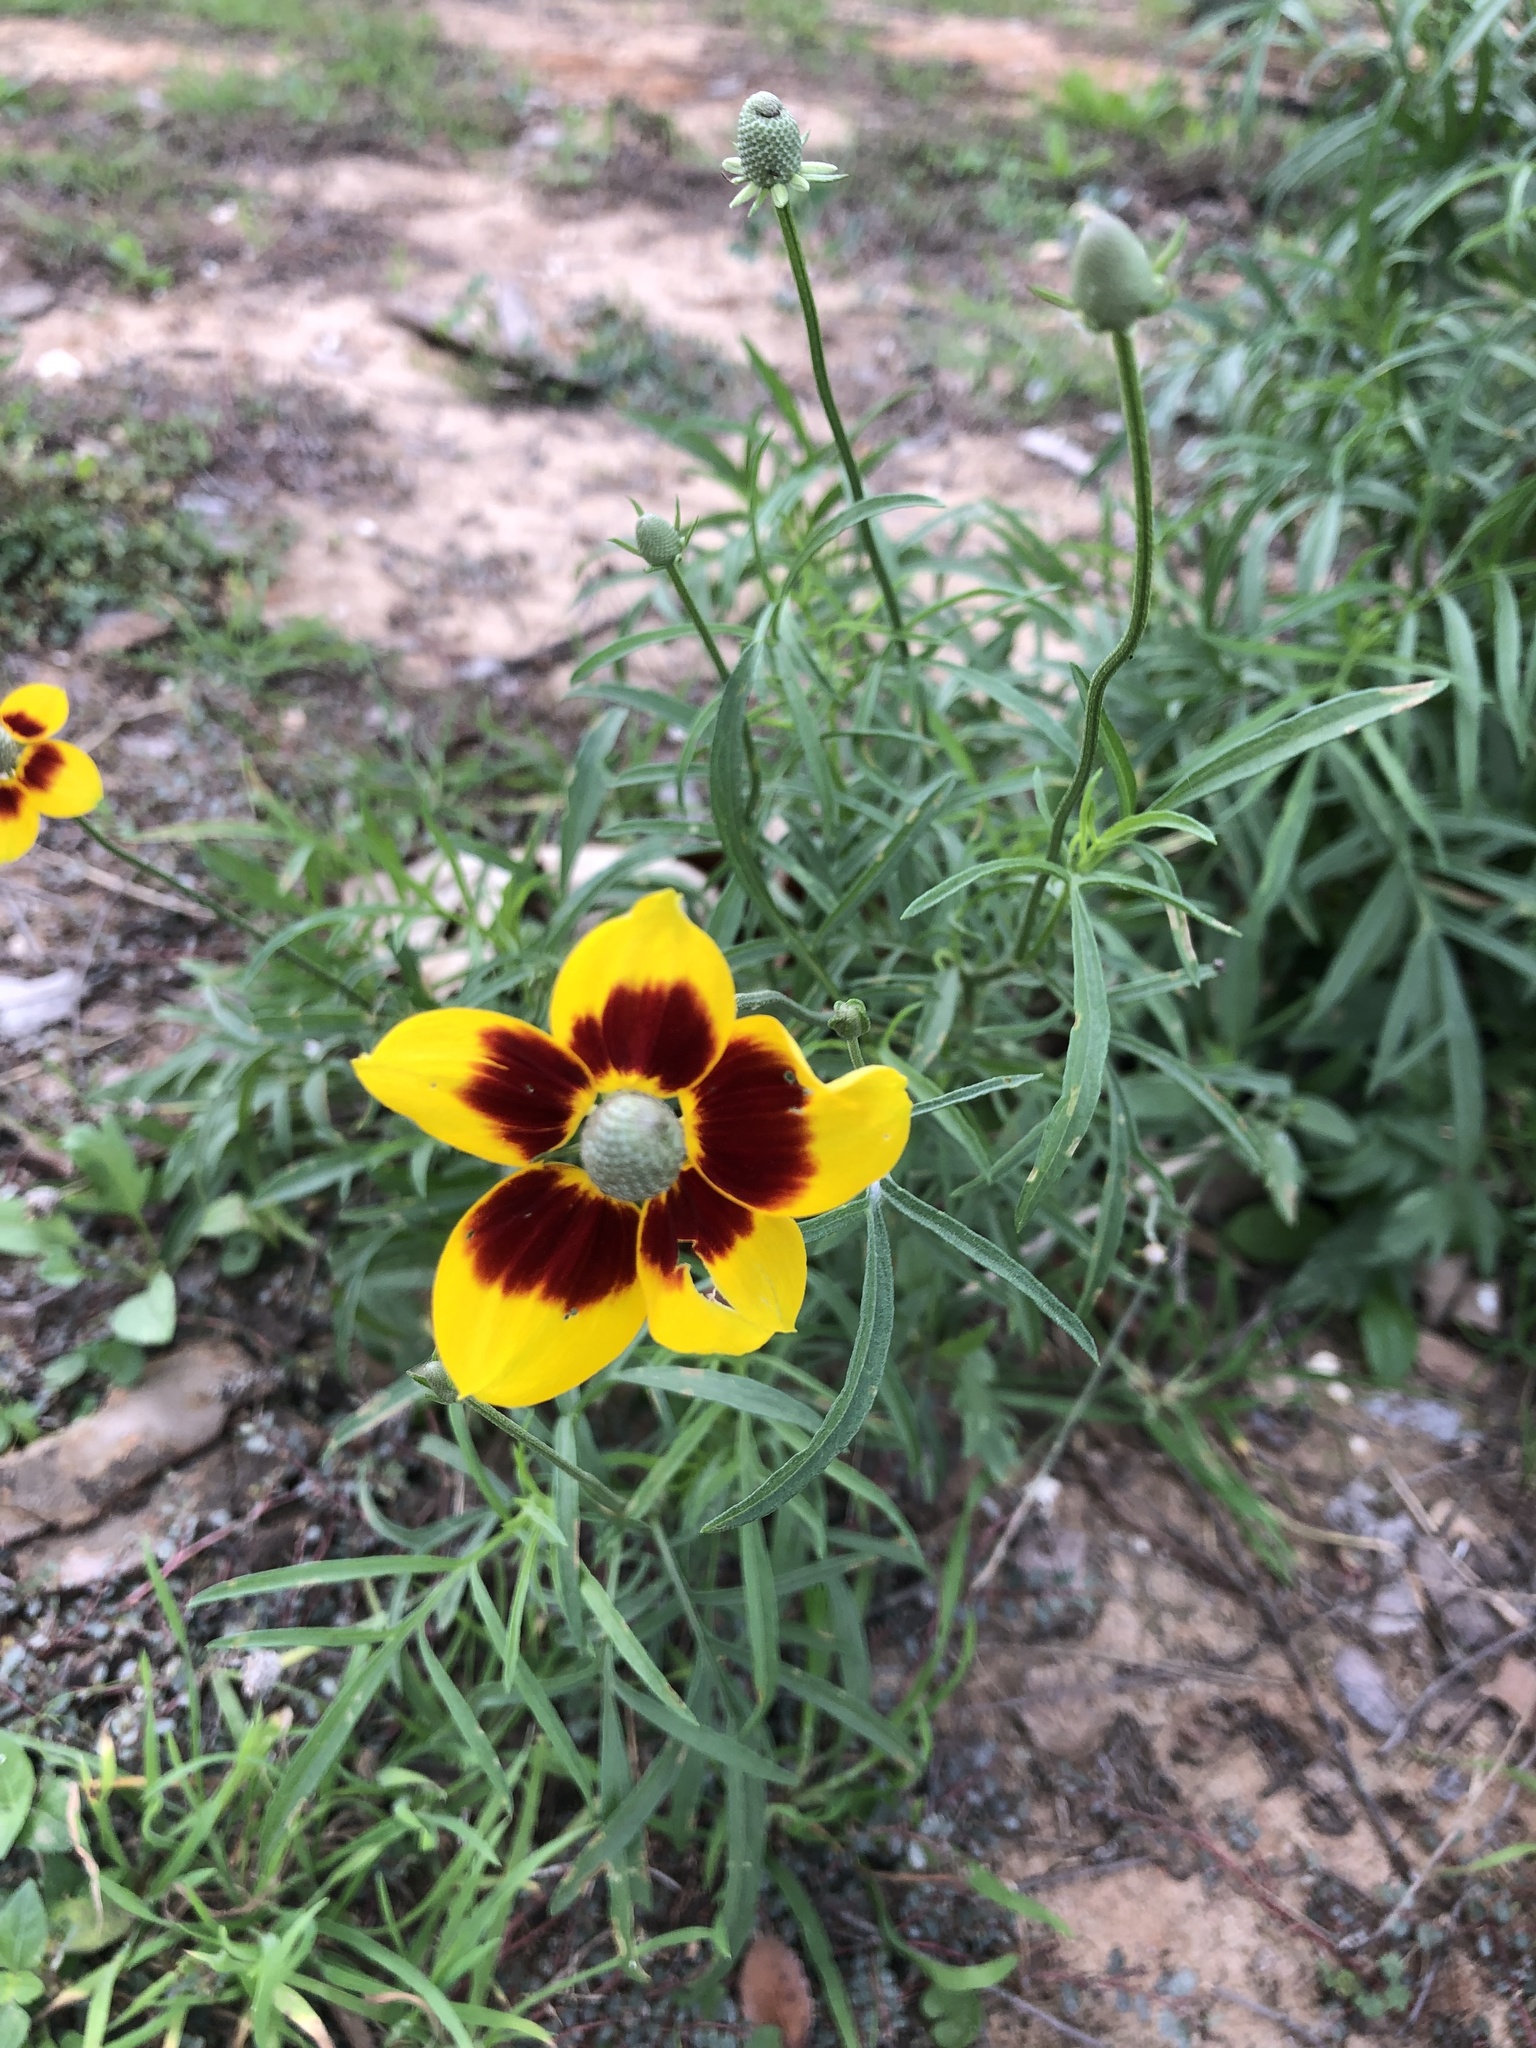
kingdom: Plantae
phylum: Tracheophyta
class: Magnoliopsida
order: Asterales
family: Asteraceae
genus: Ratibida
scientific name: Ratibida columnifera
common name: Prairie coneflower
